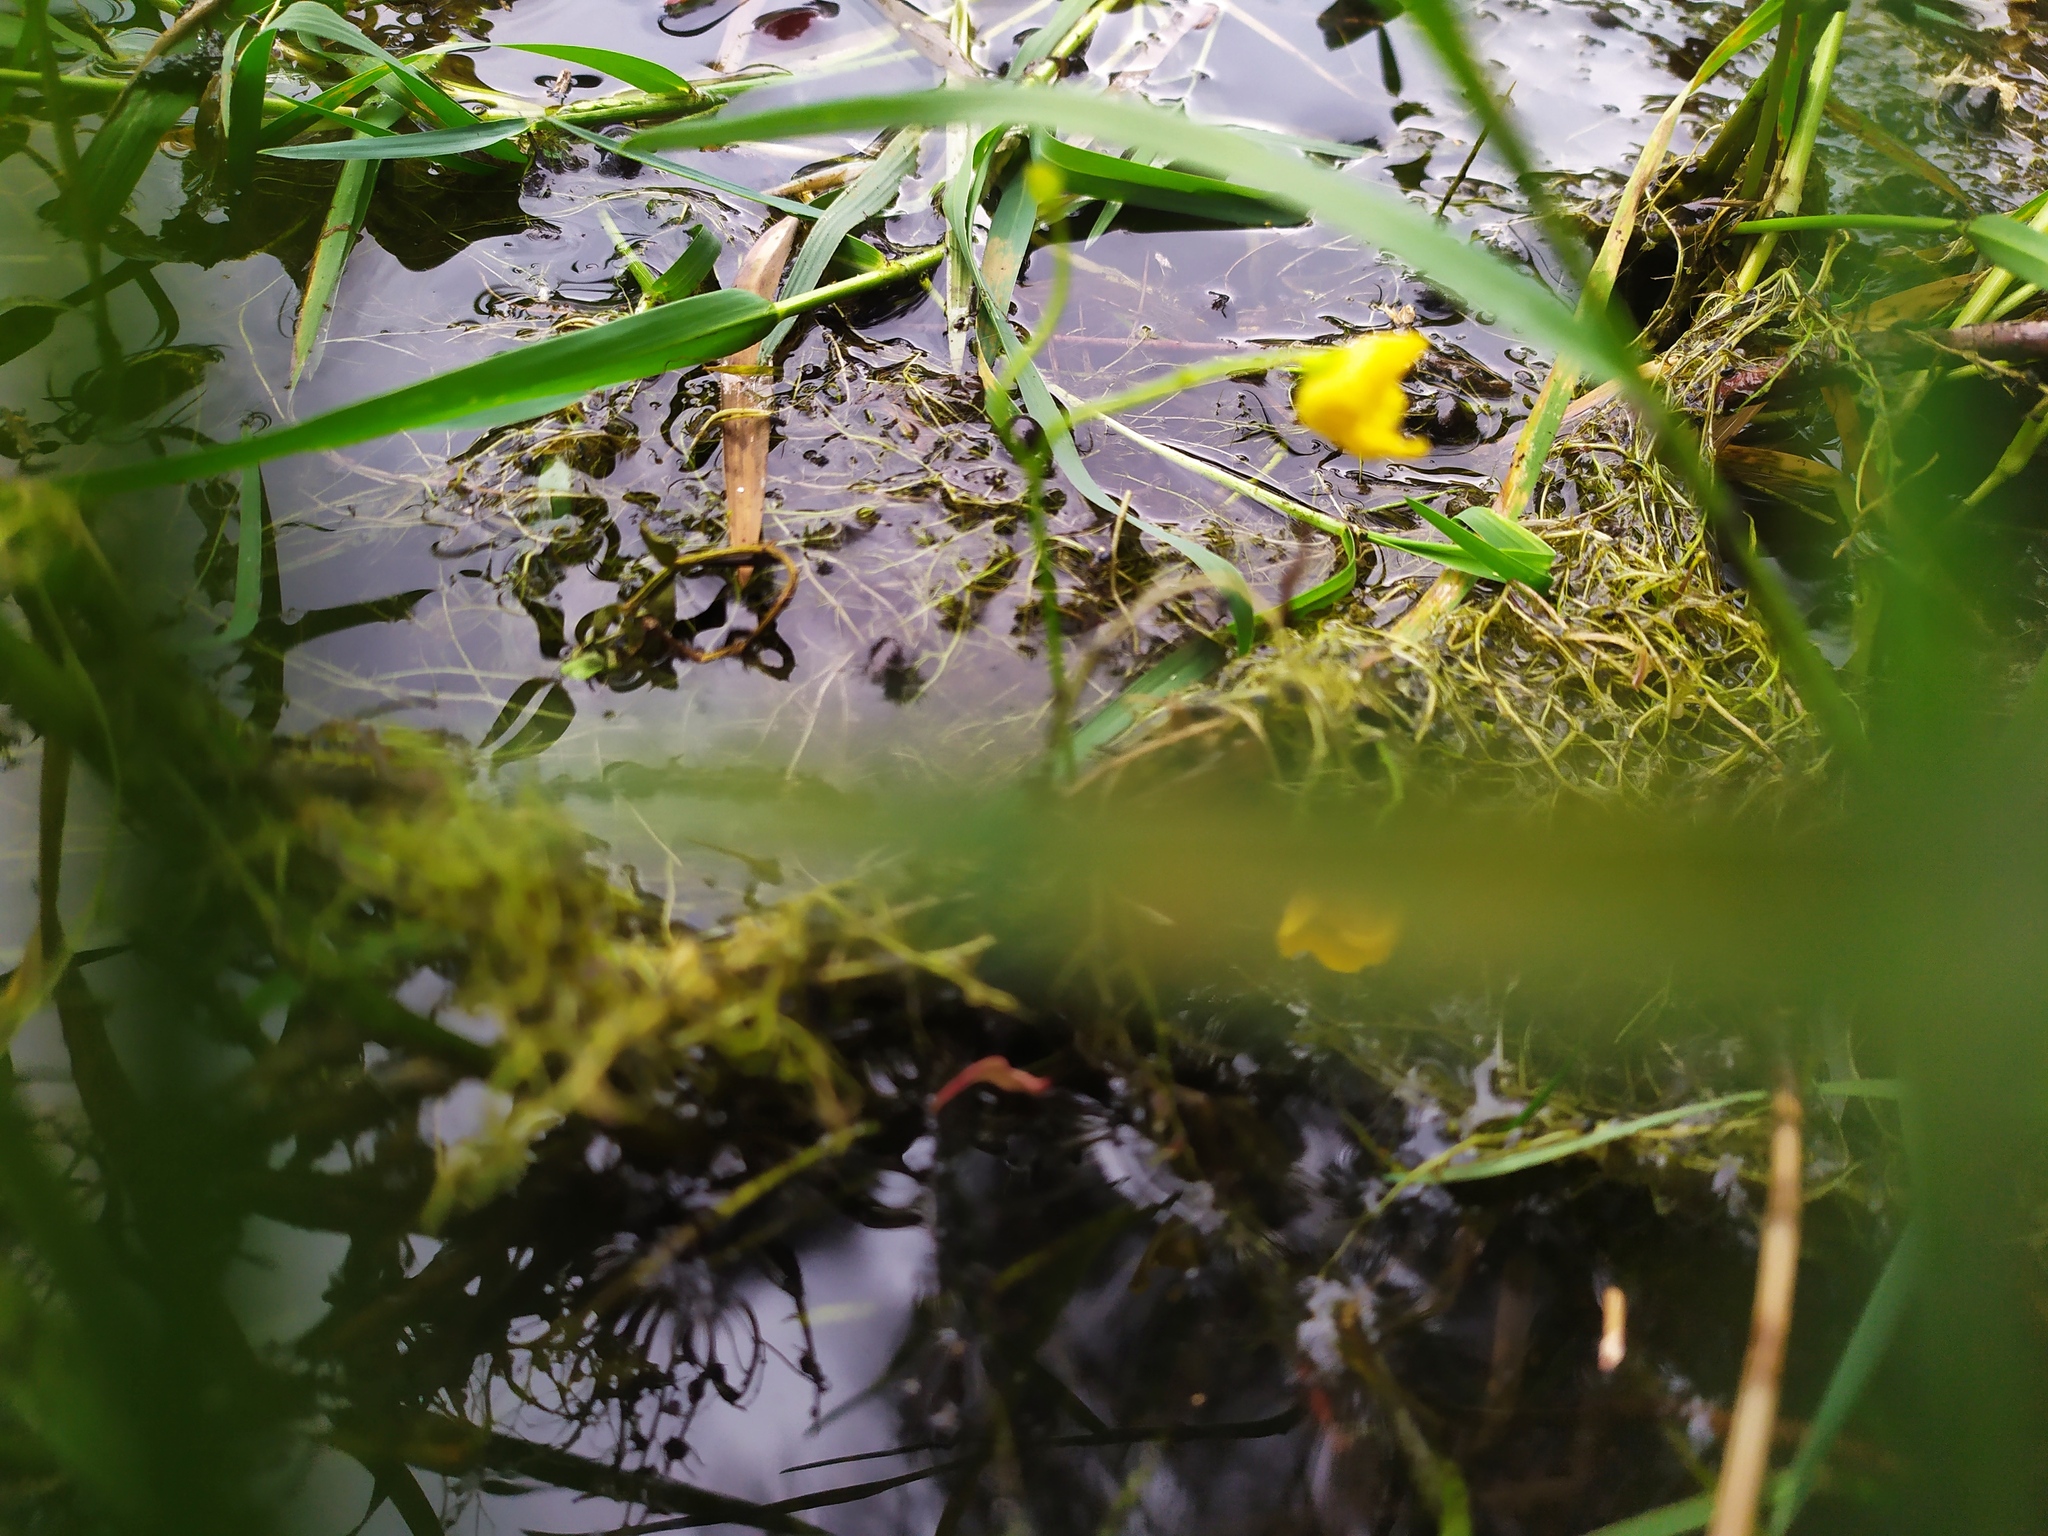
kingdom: Plantae
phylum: Tracheophyta
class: Magnoliopsida
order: Lamiales
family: Lentibulariaceae
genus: Utricularia
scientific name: Utricularia gibba
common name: Humped bladderwort
